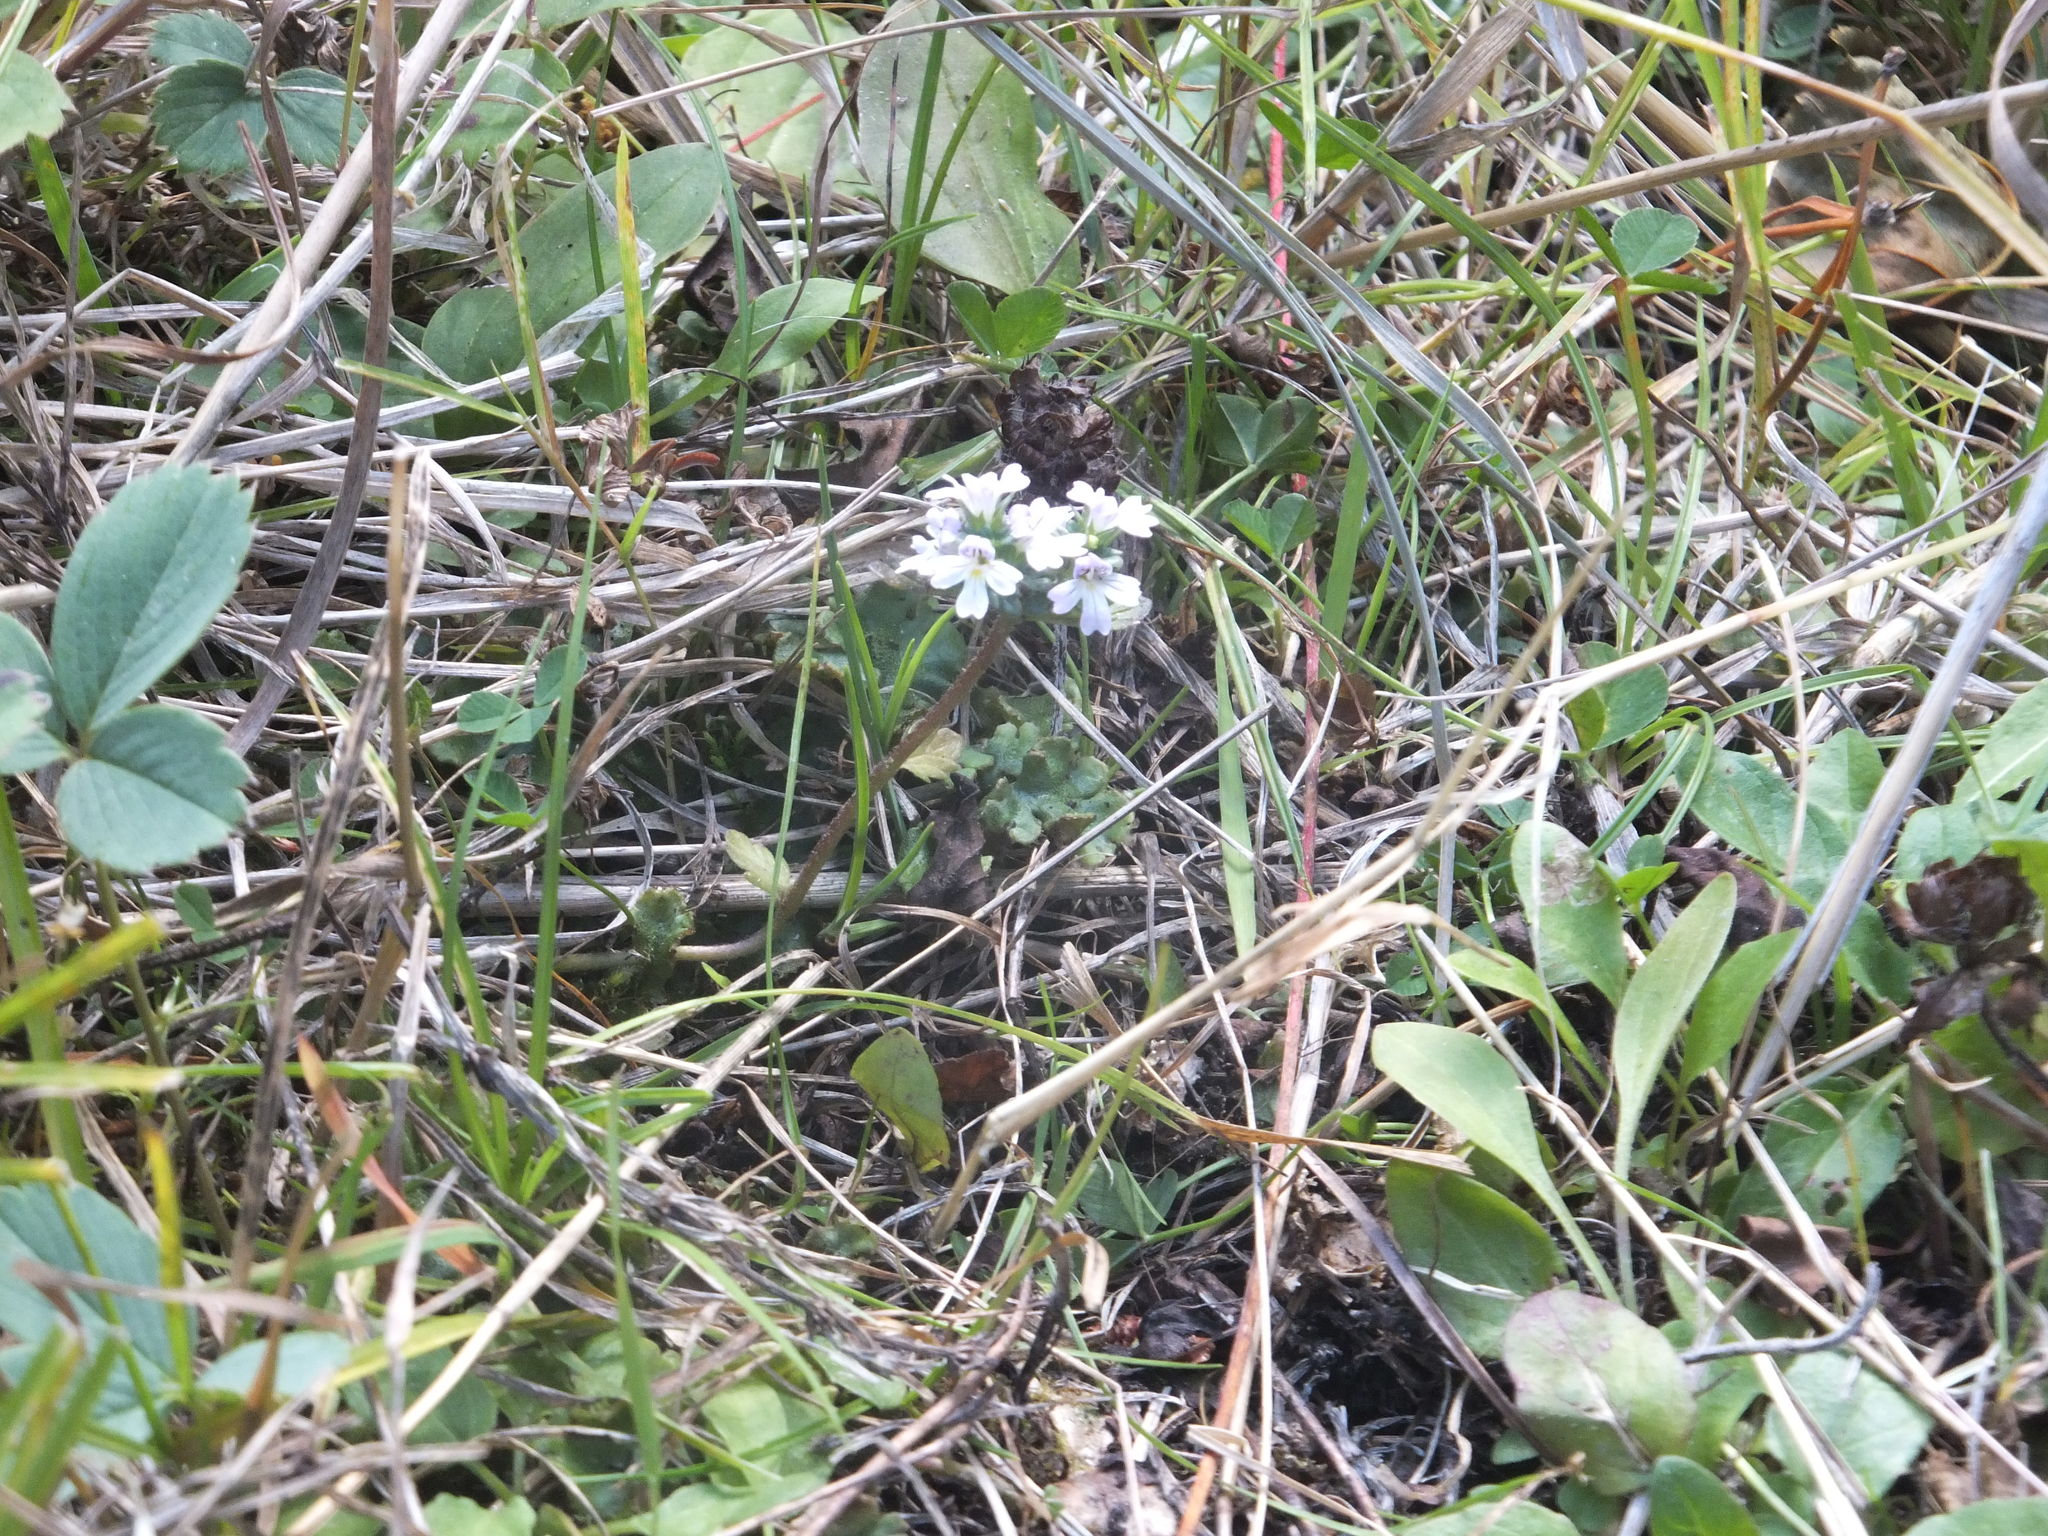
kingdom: Plantae
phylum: Tracheophyta
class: Magnoliopsida
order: Lamiales
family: Orobanchaceae
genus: Euphrasia
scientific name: Euphrasia nemorosa
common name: Common eyebright
